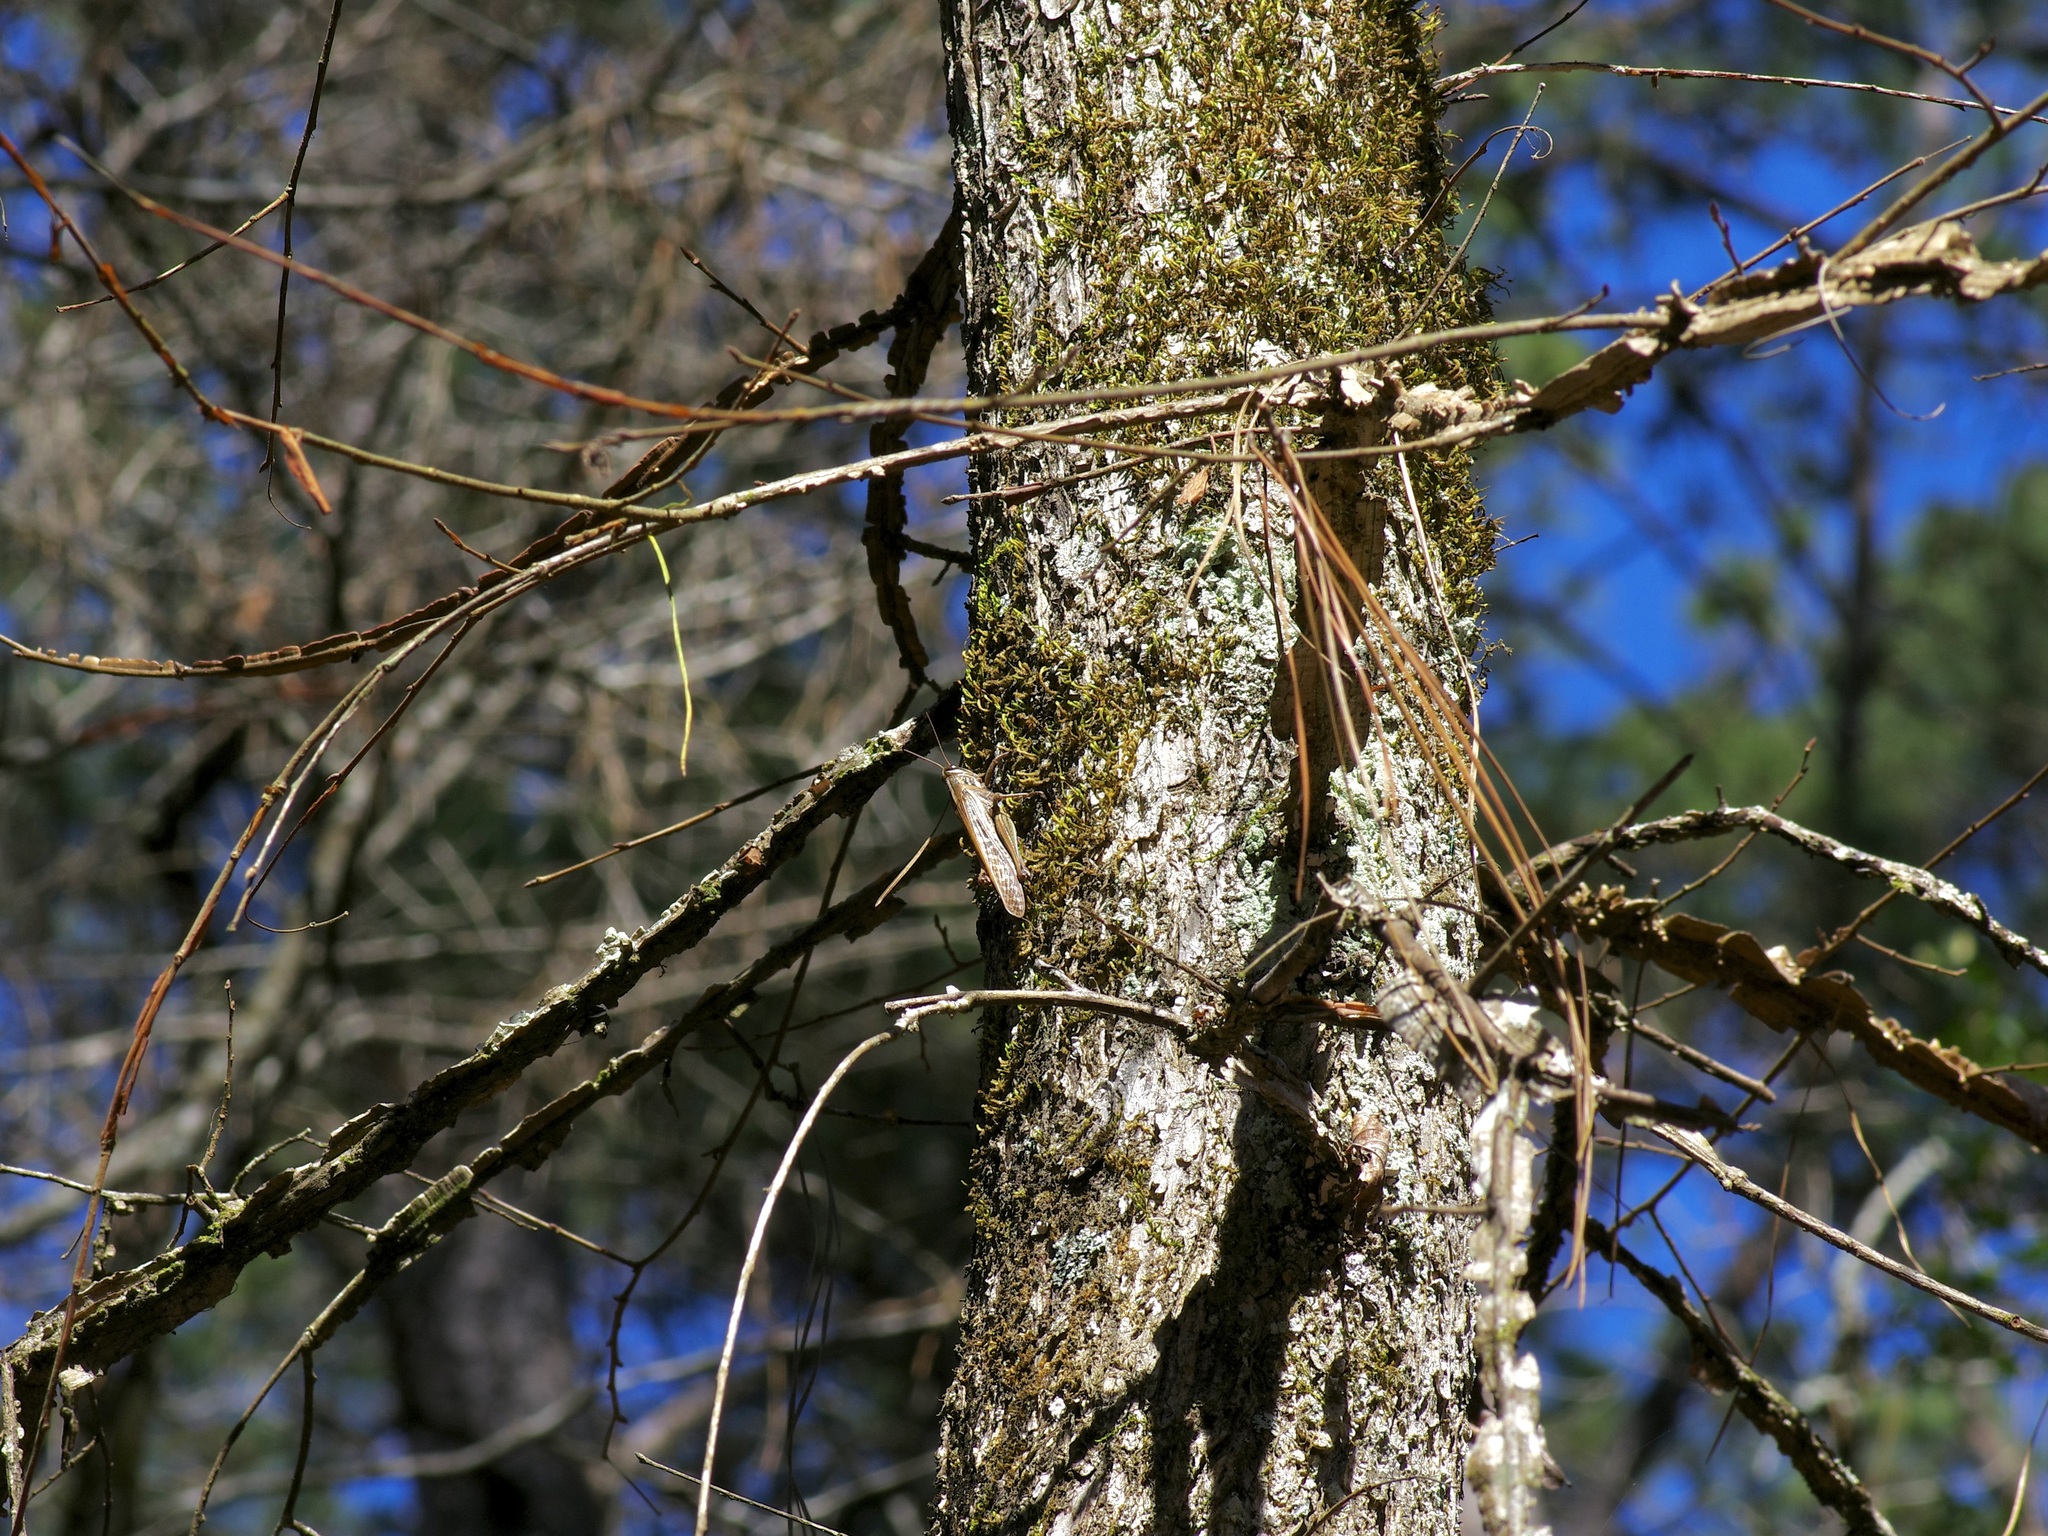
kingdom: Animalia
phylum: Arthropoda
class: Insecta
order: Orthoptera
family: Acrididae
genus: Schistocerca
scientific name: Schistocerca americana
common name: American bird locust
